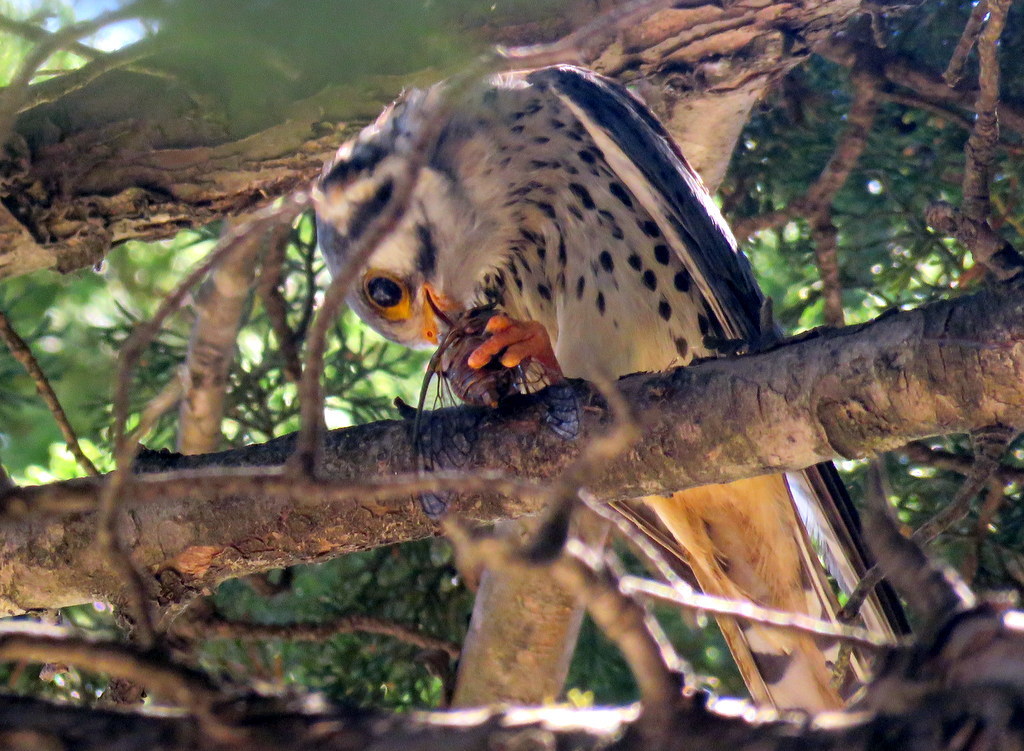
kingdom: Animalia
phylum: Chordata
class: Aves
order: Falconiformes
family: Falconidae
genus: Falco
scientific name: Falco sparverius
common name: American kestrel
